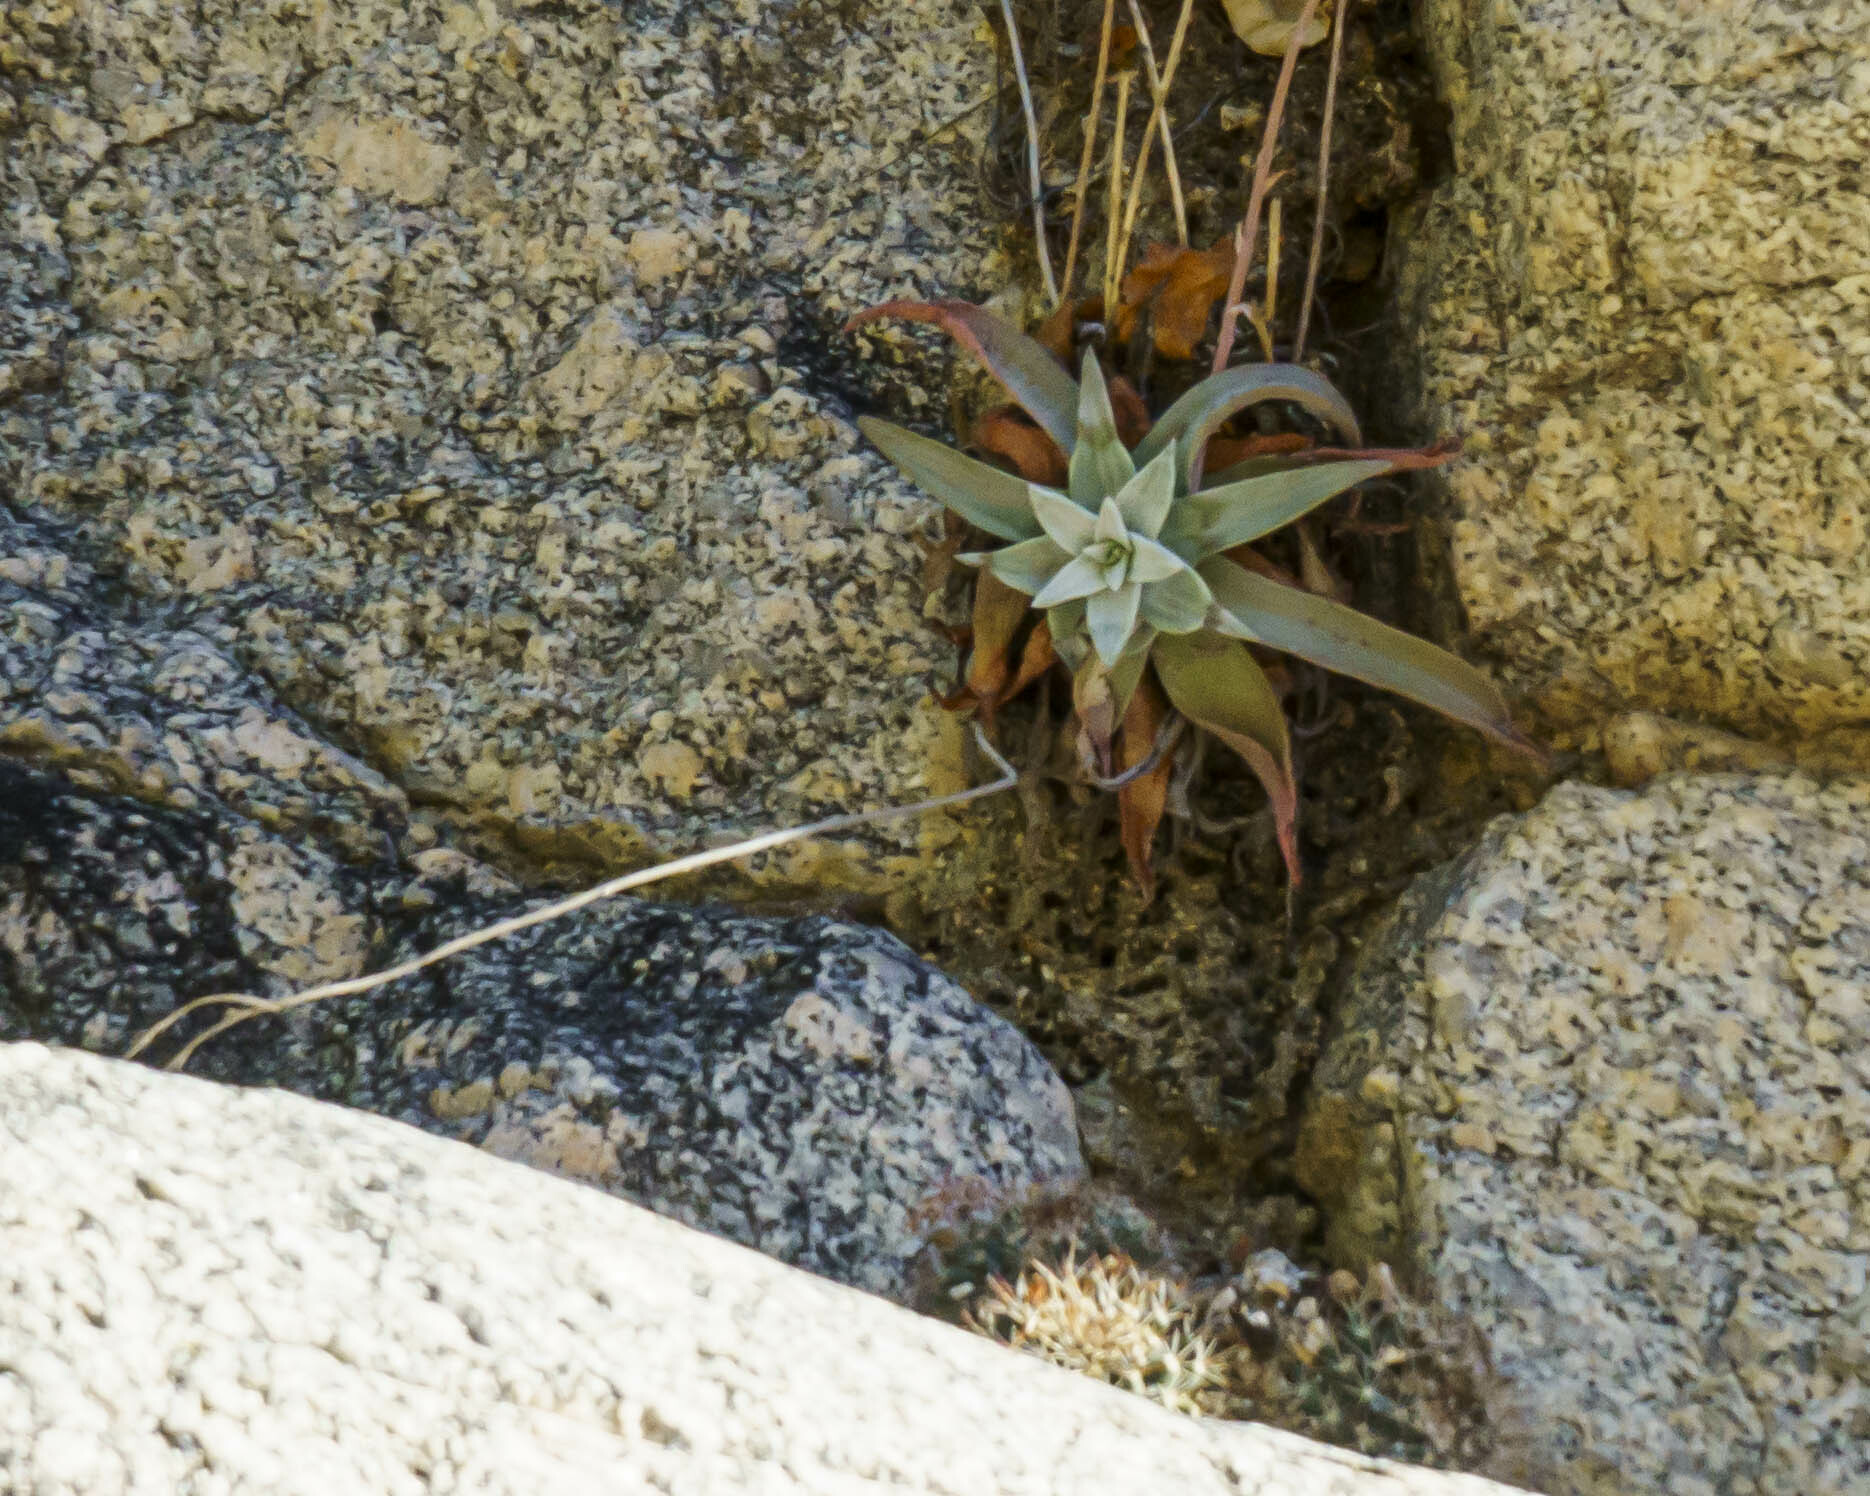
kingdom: Plantae
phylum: Tracheophyta
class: Magnoliopsida
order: Saxifragales
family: Crassulaceae
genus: Dudleya
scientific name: Dudleya nubigena
